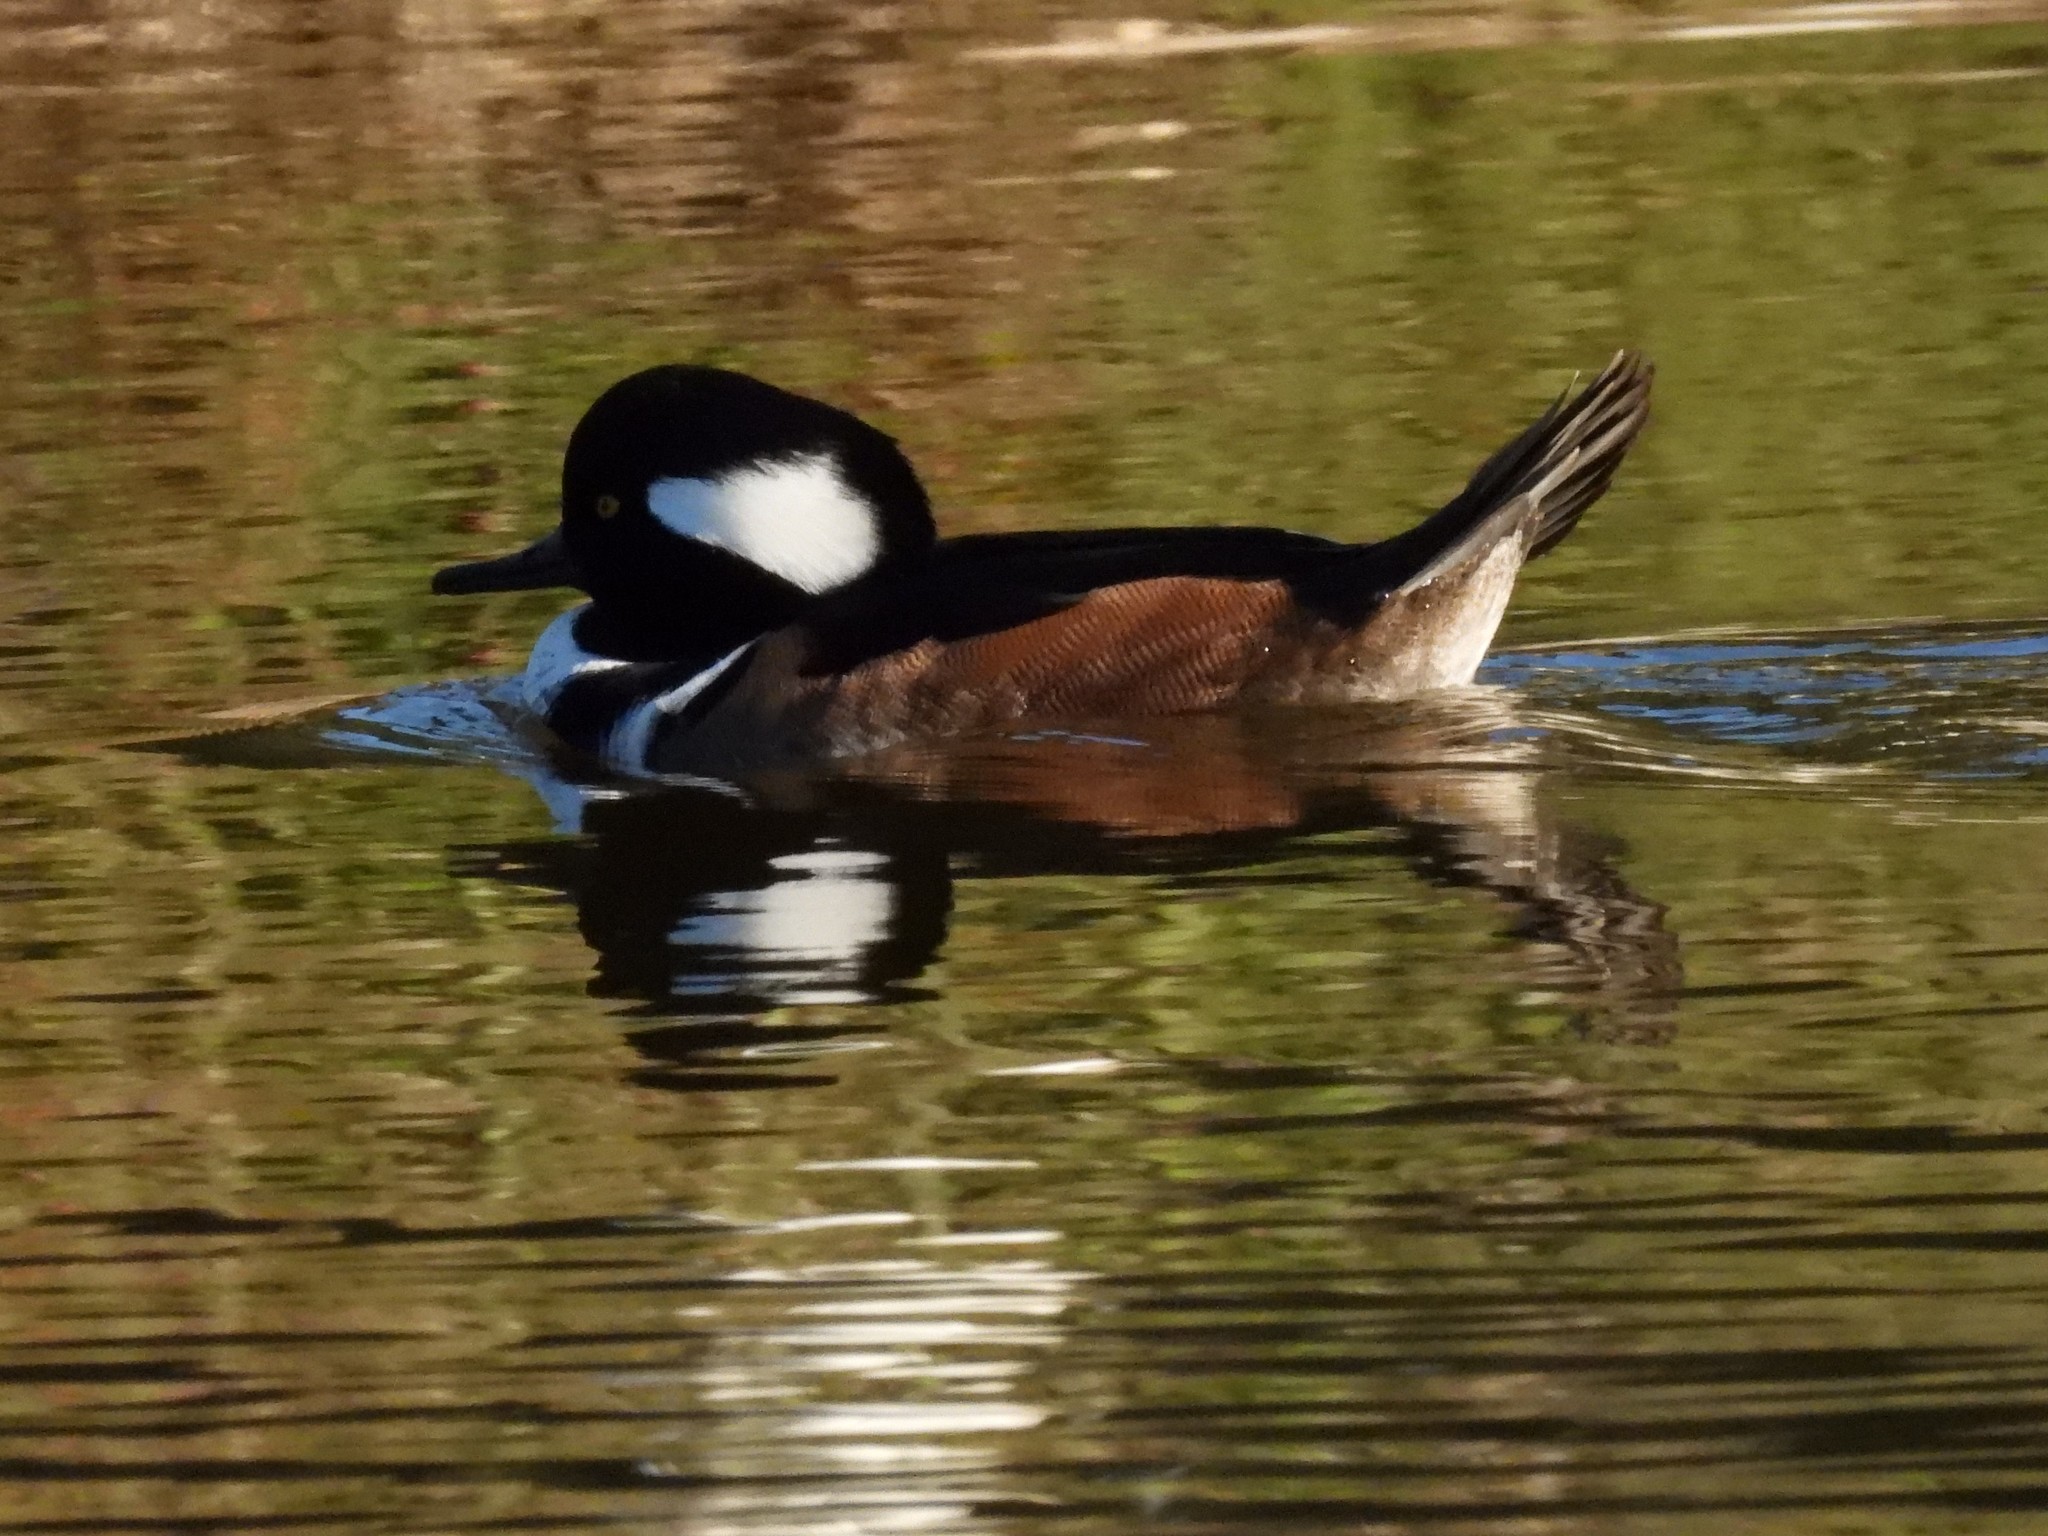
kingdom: Animalia
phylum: Chordata
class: Aves
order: Anseriformes
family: Anatidae
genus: Lophodytes
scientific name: Lophodytes cucullatus
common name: Hooded merganser
